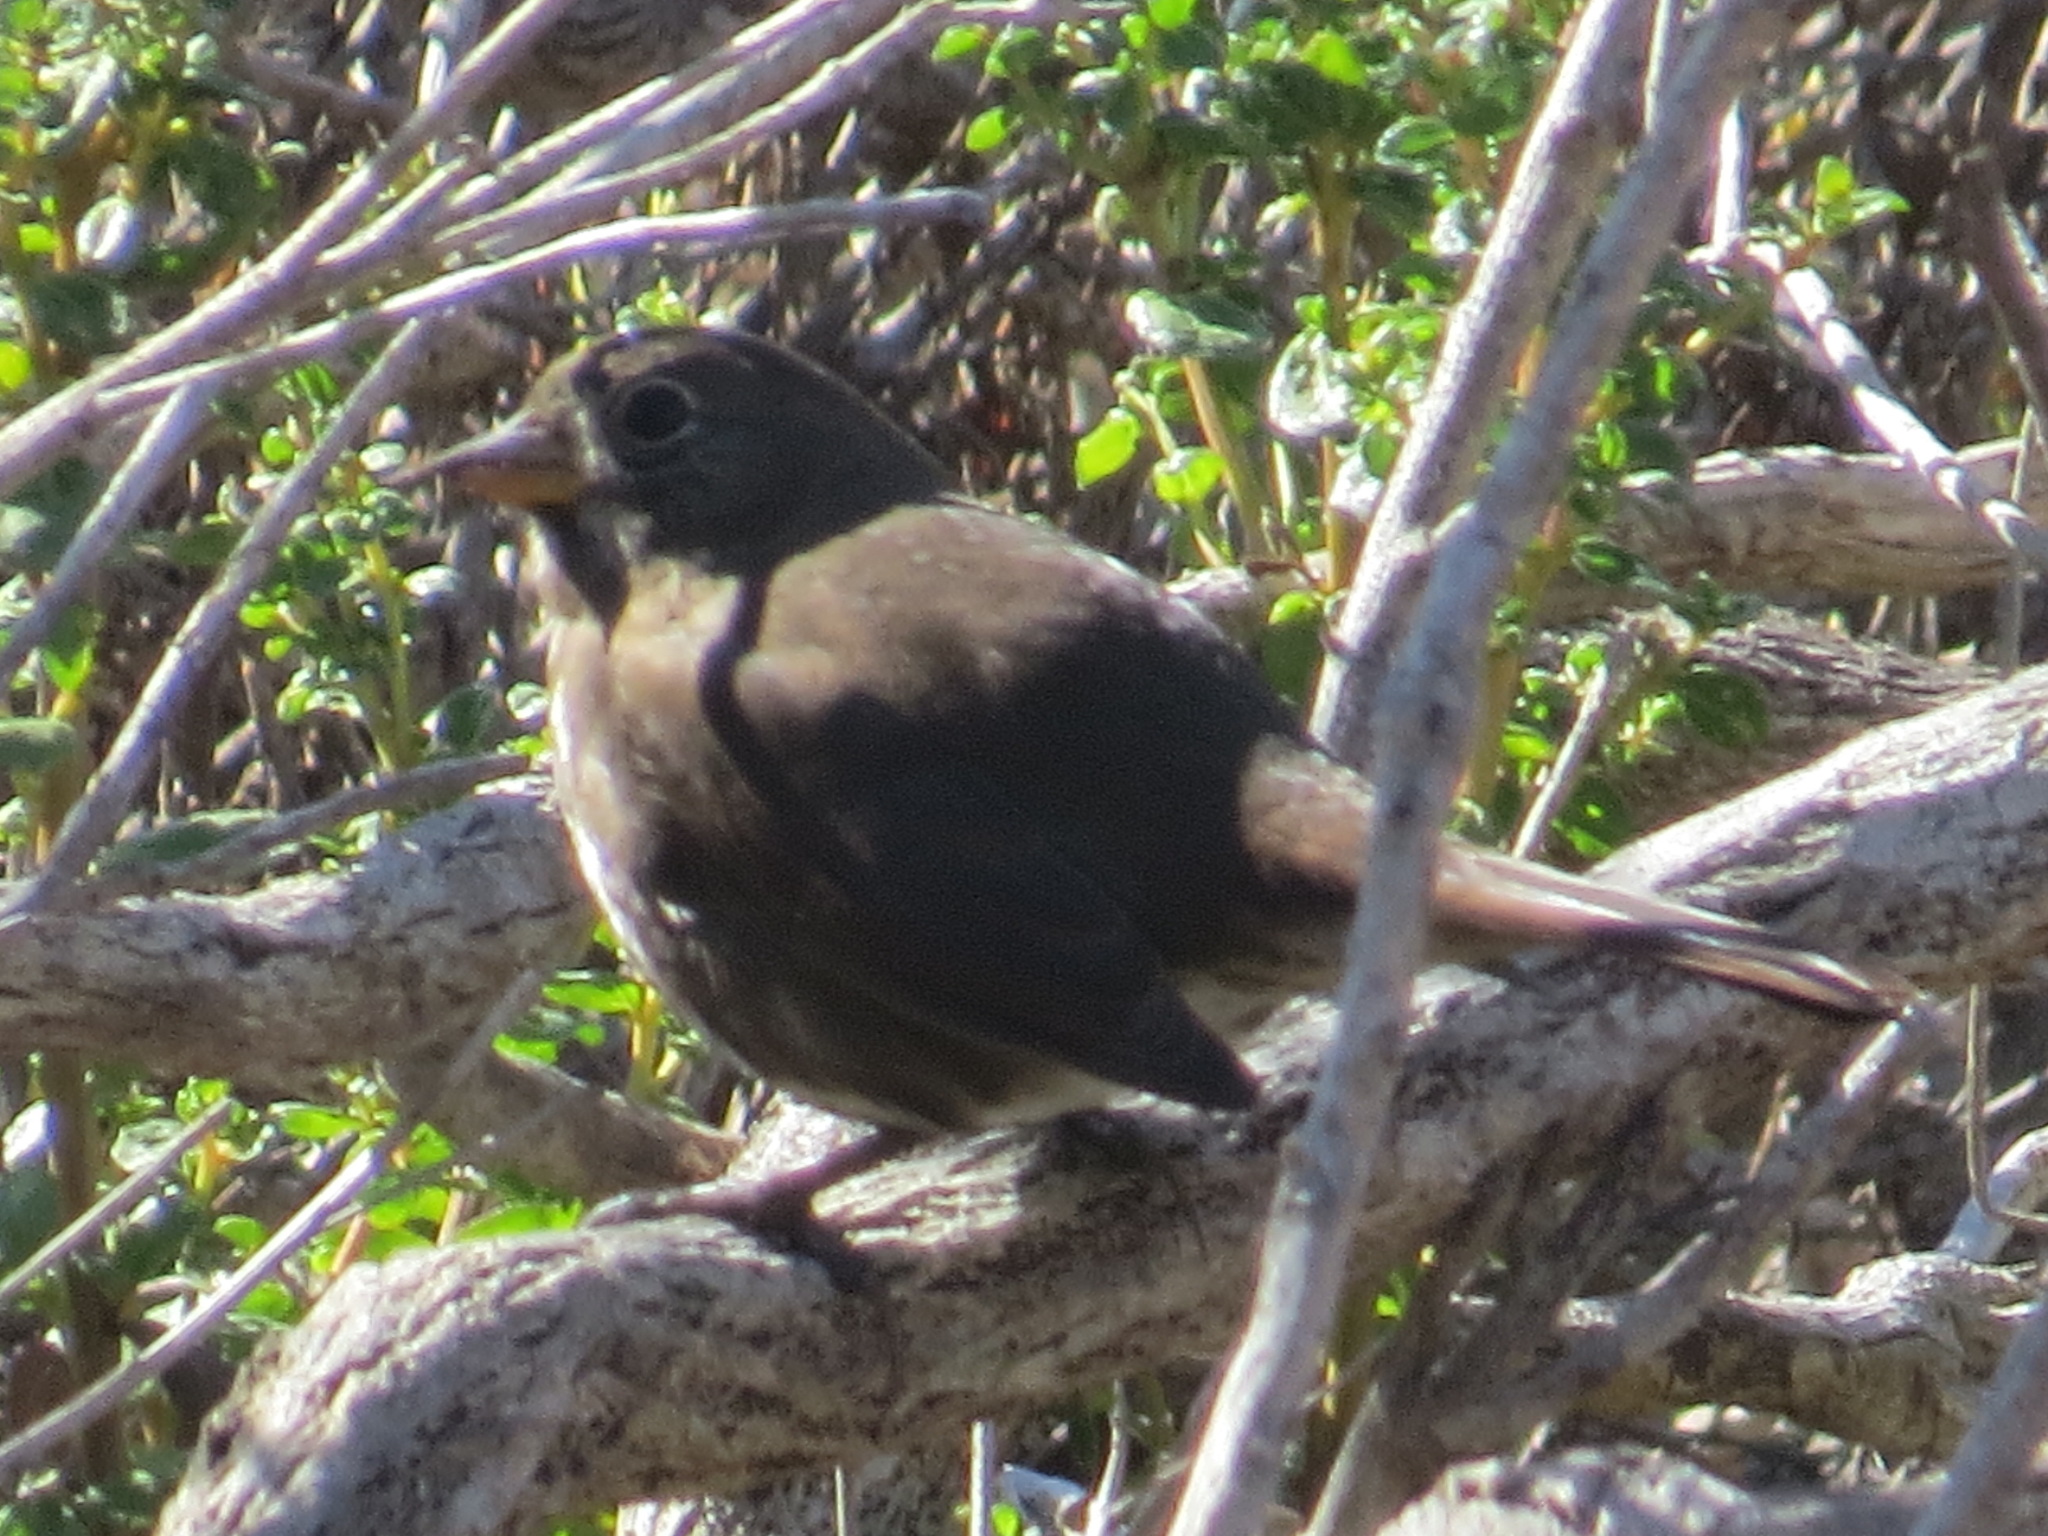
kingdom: Animalia
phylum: Chordata
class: Aves
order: Passeriformes
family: Passerellidae
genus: Passerella
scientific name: Passerella iliaca
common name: Fox sparrow
